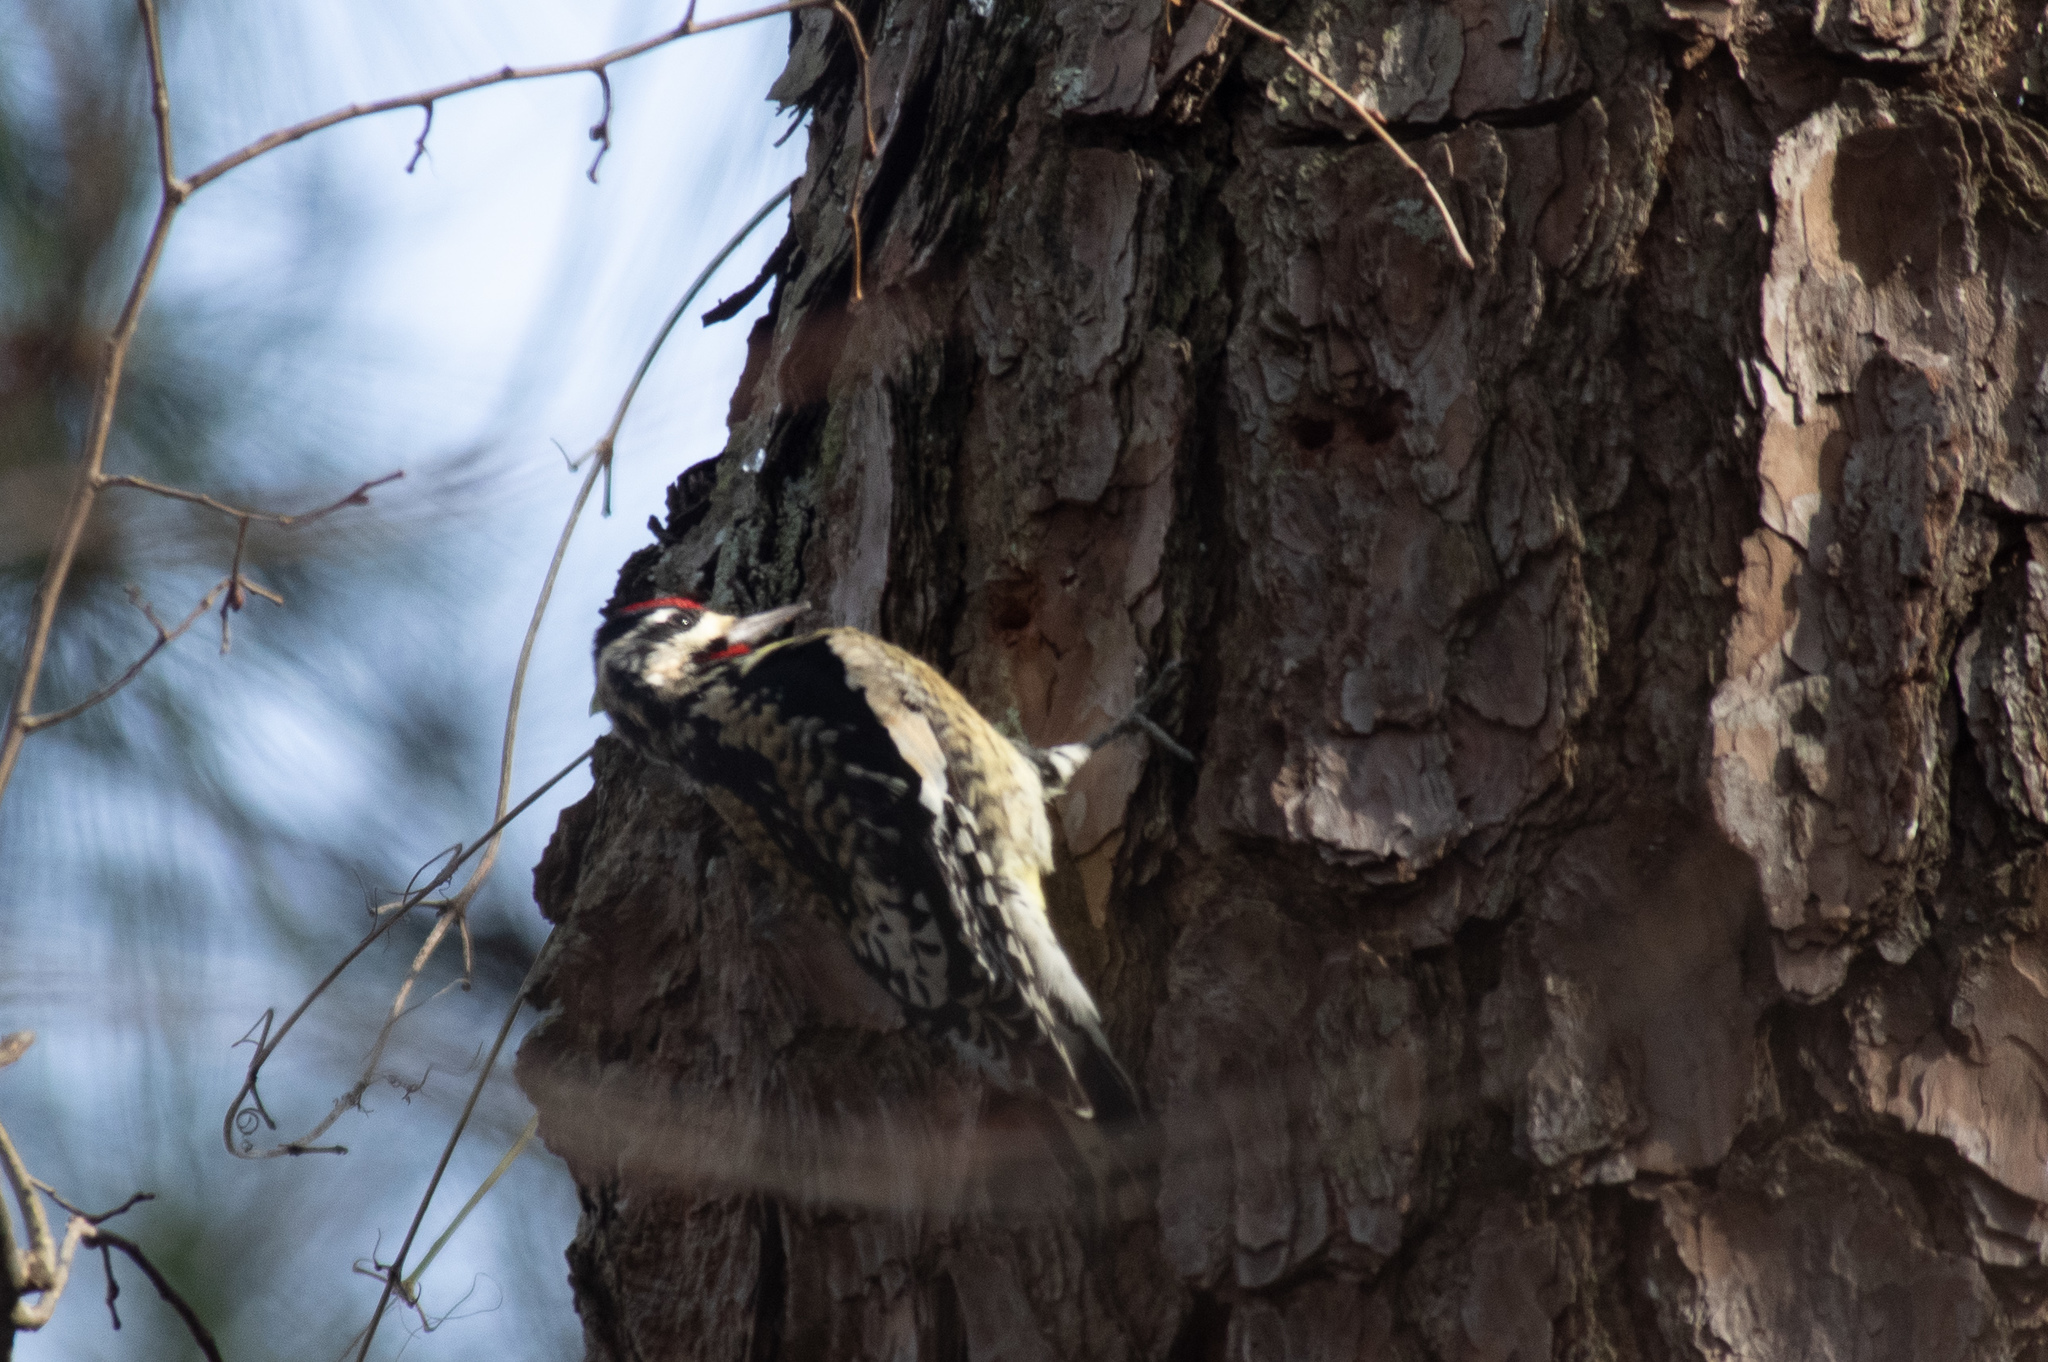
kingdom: Animalia
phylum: Chordata
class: Aves
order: Piciformes
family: Picidae
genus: Sphyrapicus
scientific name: Sphyrapicus varius
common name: Yellow-bellied sapsucker
